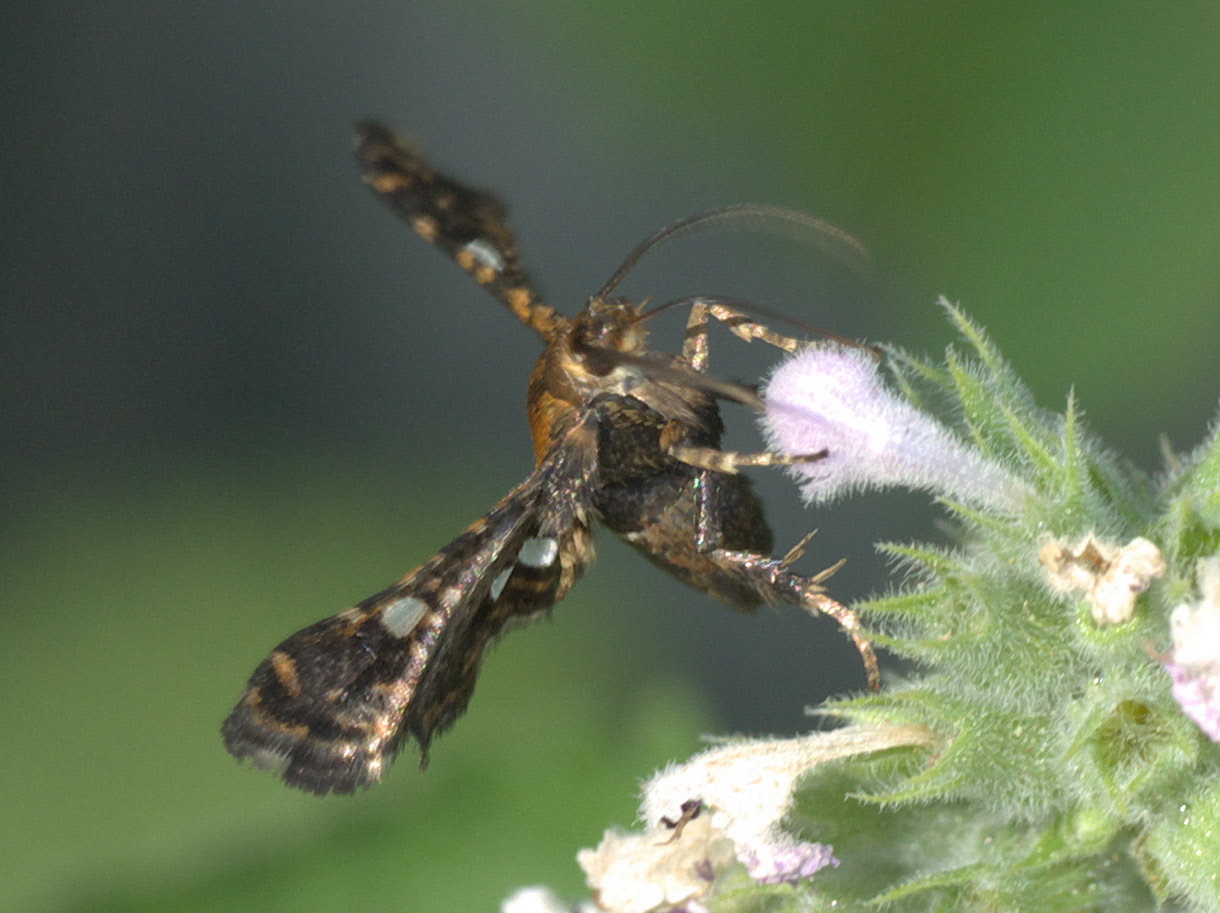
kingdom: Animalia
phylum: Arthropoda
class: Insecta
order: Lepidoptera
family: Thyrididae
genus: Thyris
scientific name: Thyris maculata
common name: Spotted thyris moth
